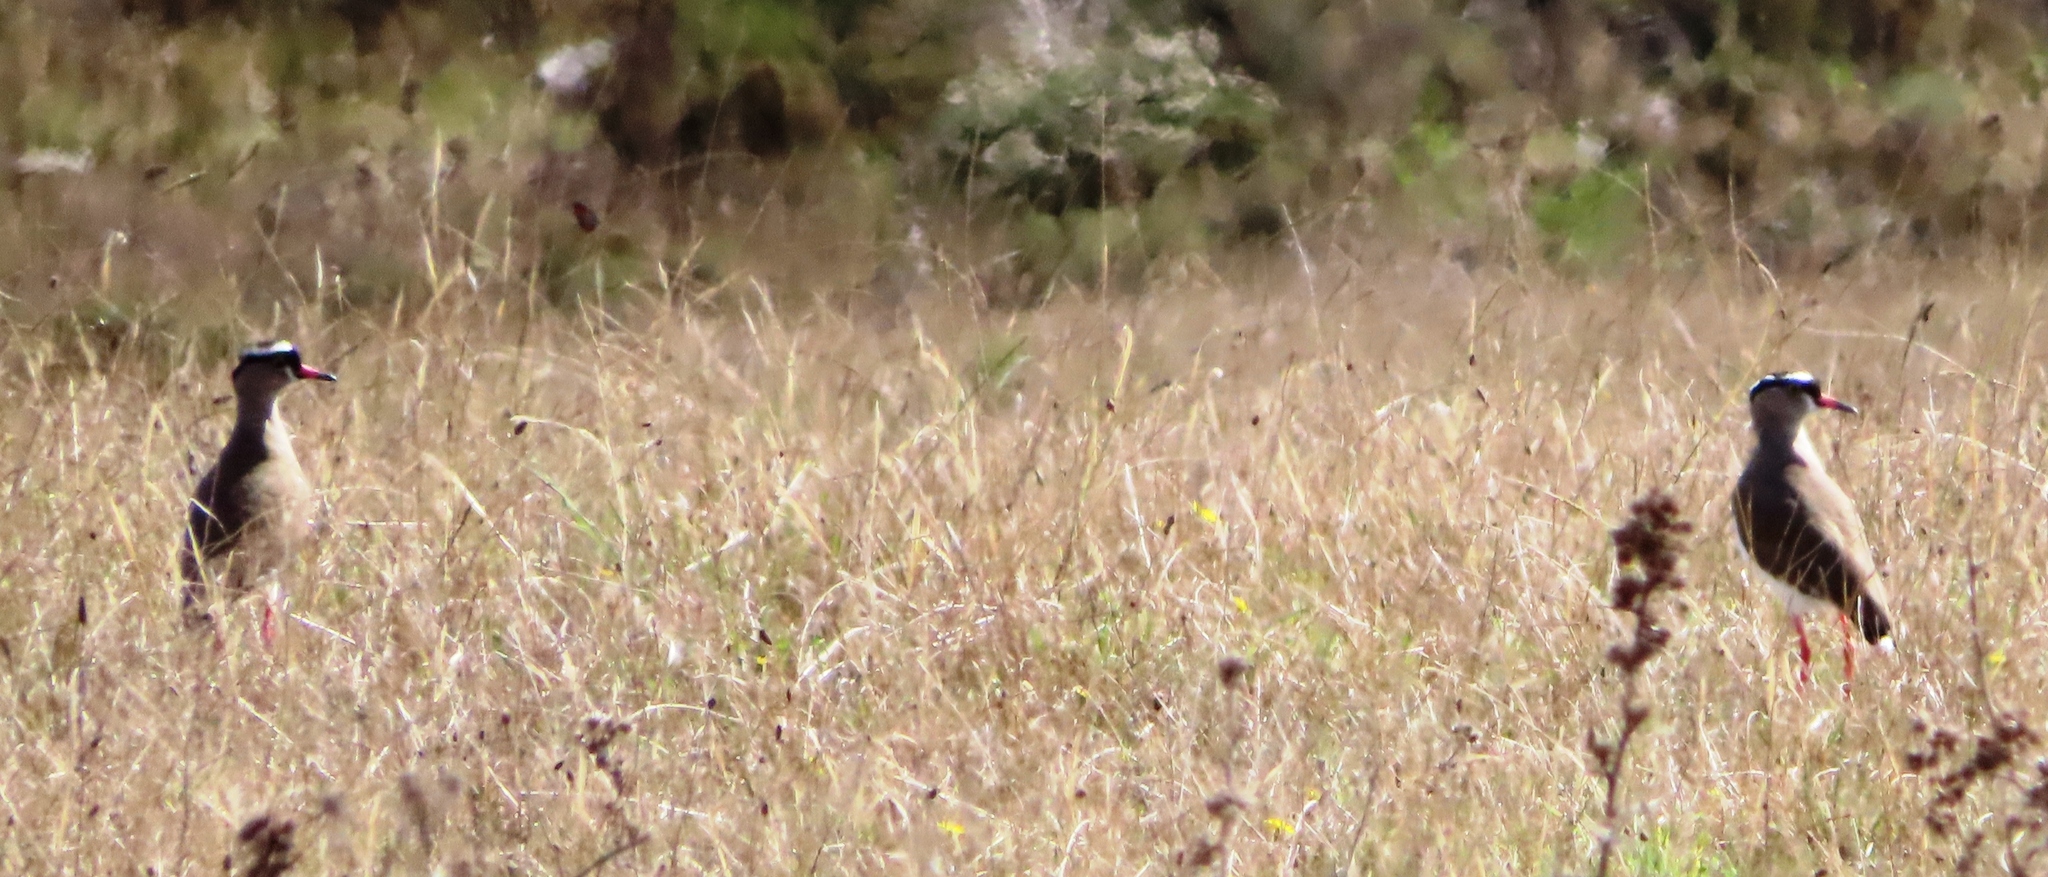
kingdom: Animalia
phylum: Chordata
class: Aves
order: Charadriiformes
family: Charadriidae
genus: Vanellus
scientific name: Vanellus coronatus
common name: Crowned lapwing
